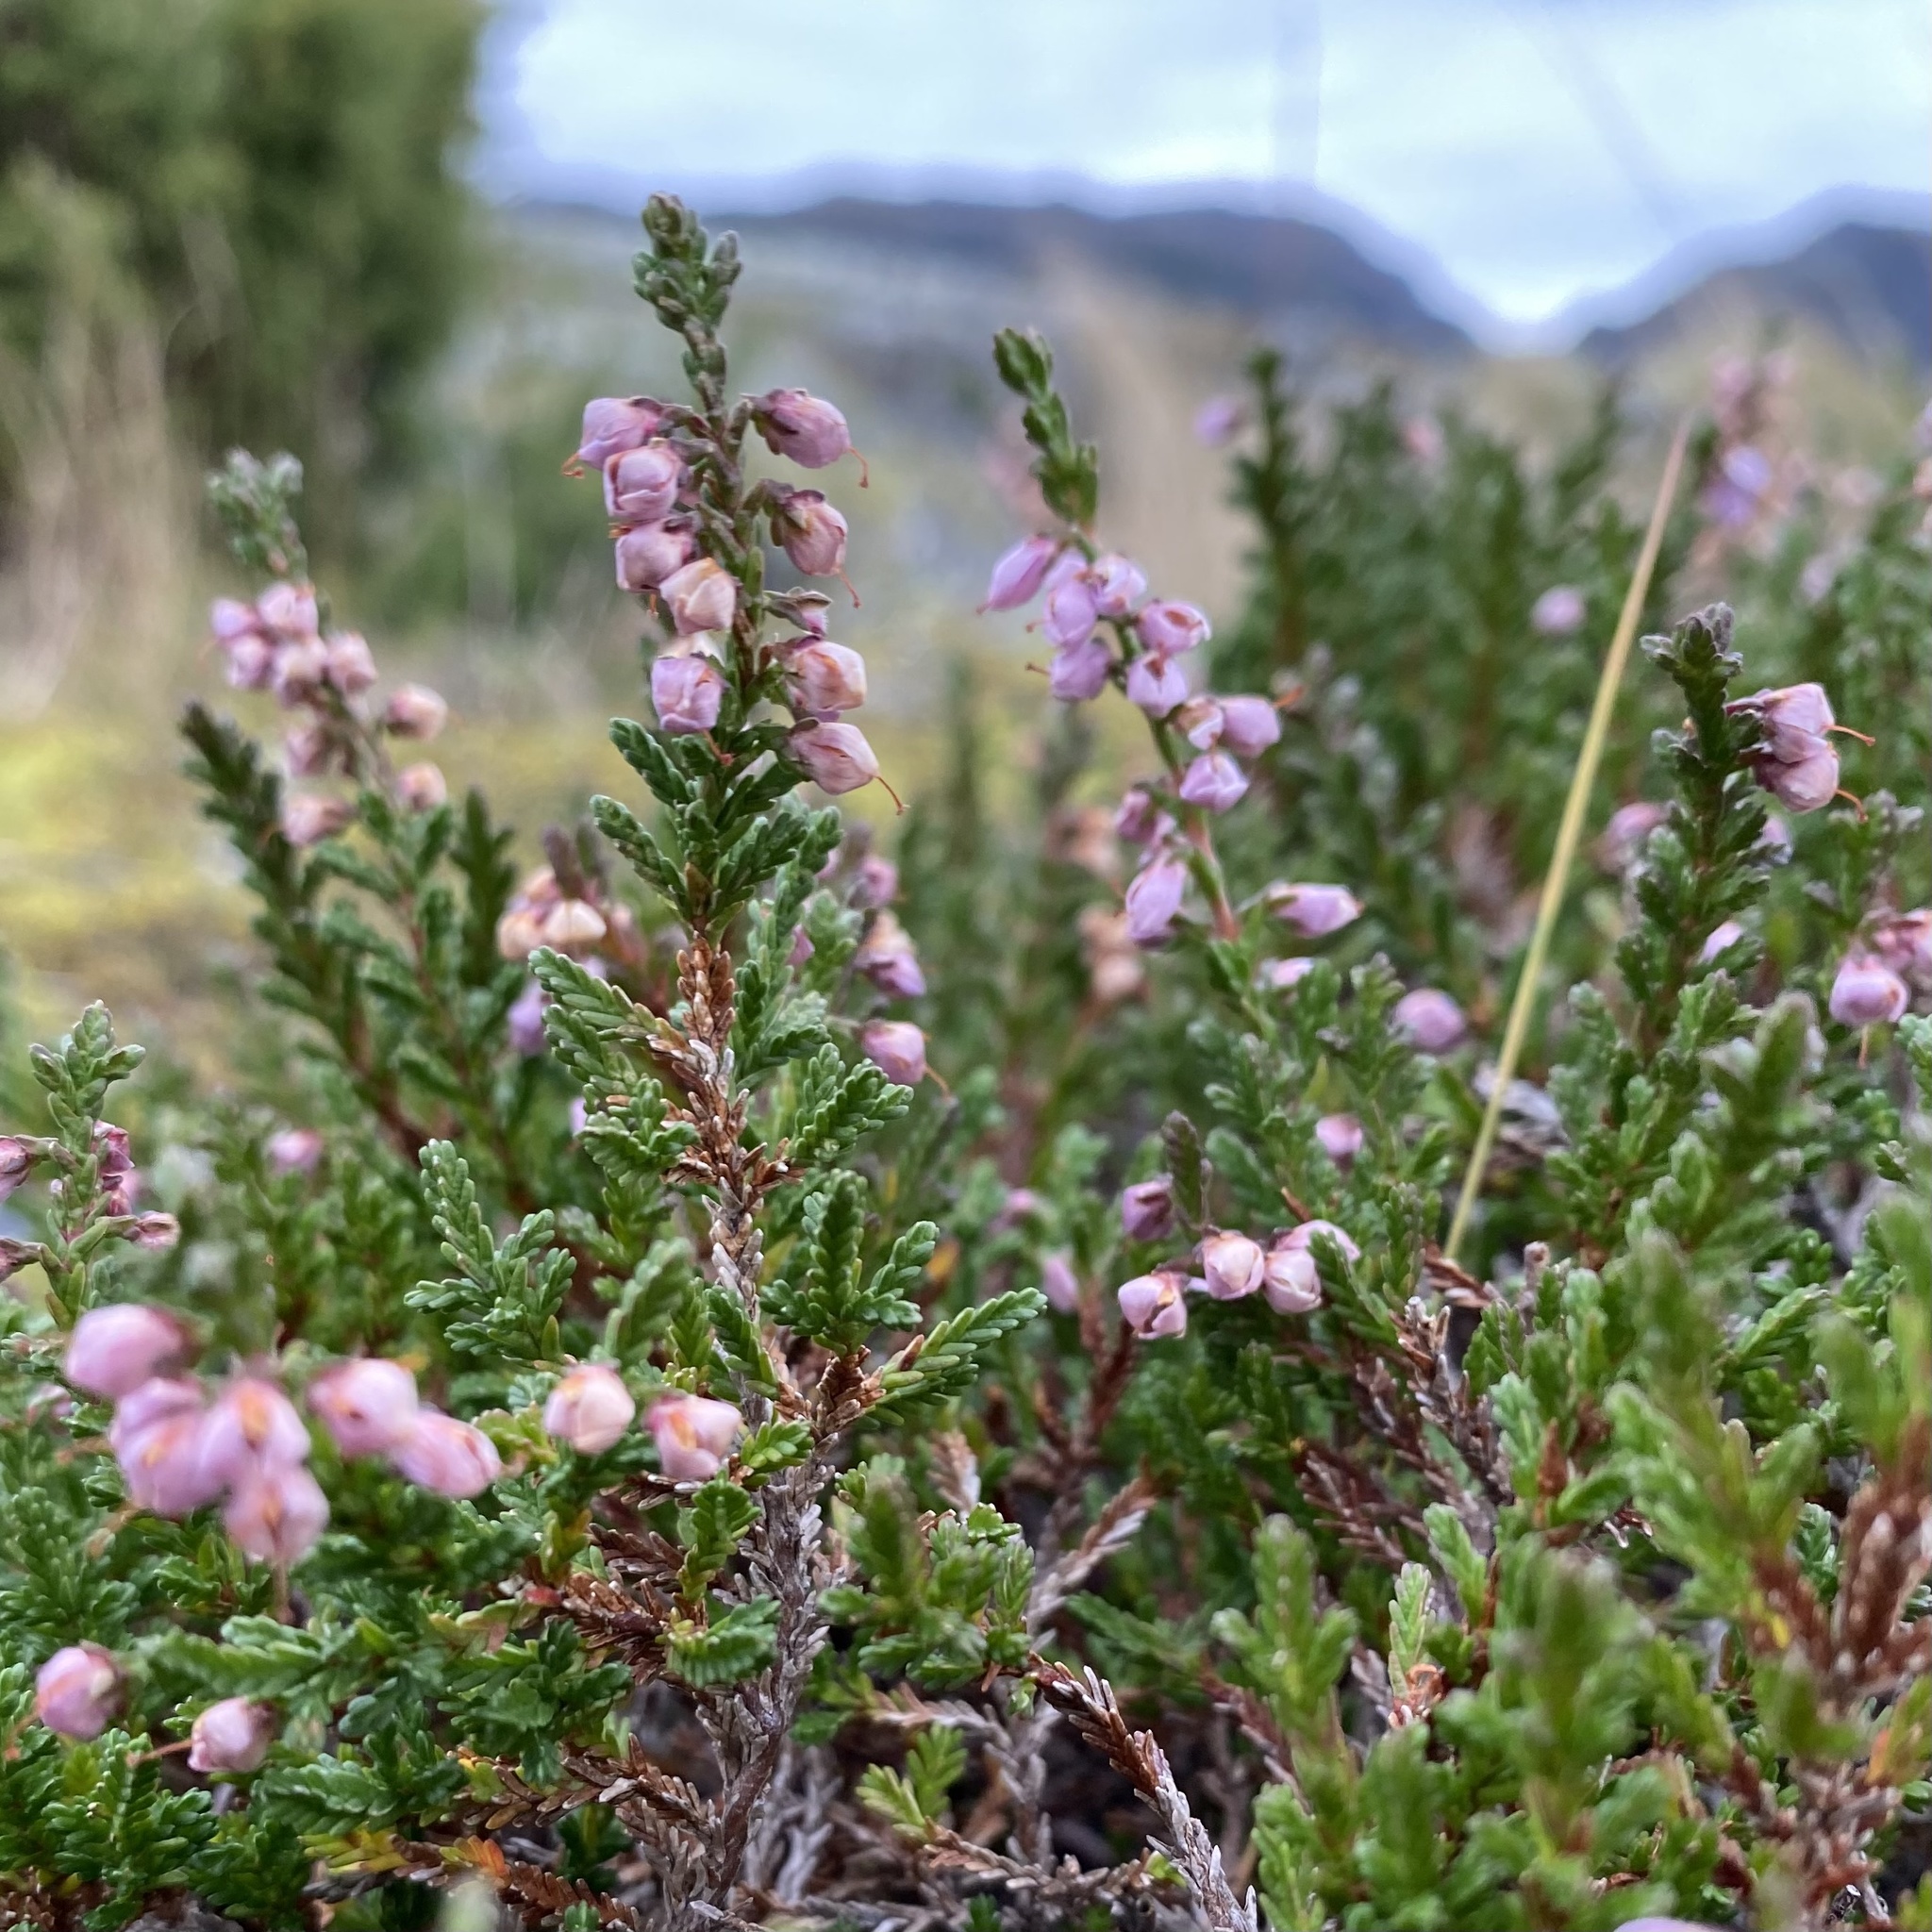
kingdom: Plantae
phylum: Tracheophyta
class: Magnoliopsida
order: Ericales
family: Ericaceae
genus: Calluna
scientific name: Calluna vulgaris
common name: Heather
